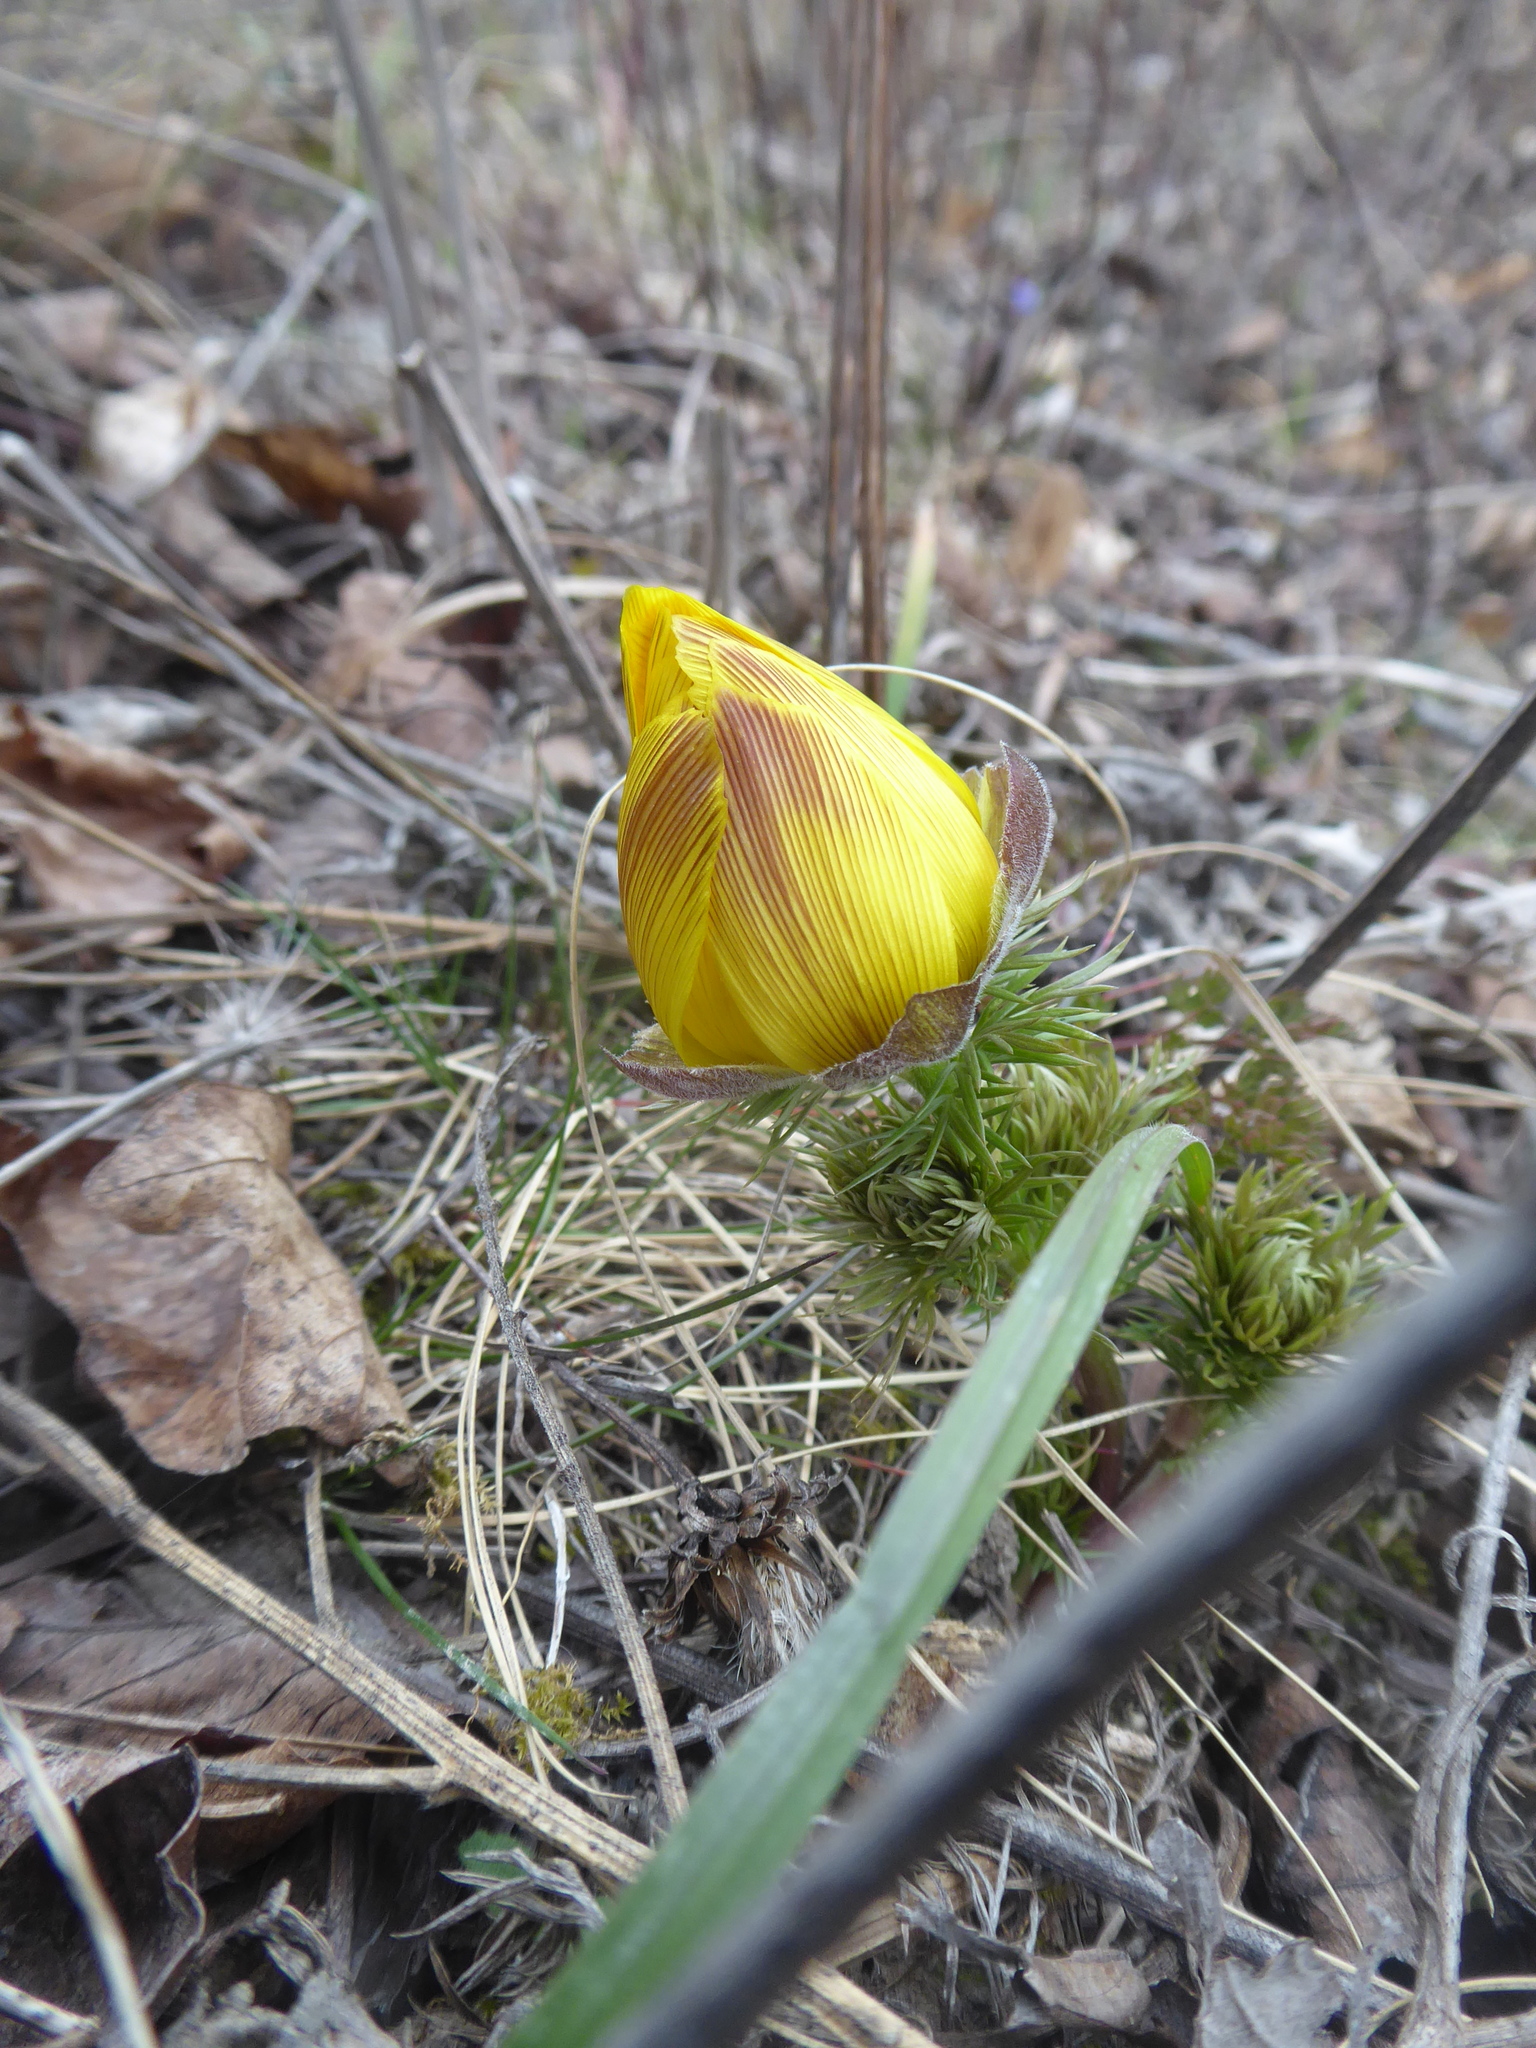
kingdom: Plantae
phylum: Tracheophyta
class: Magnoliopsida
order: Ranunculales
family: Ranunculaceae
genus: Adonis
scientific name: Adonis vernalis
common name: Yellow pheasants-eye
